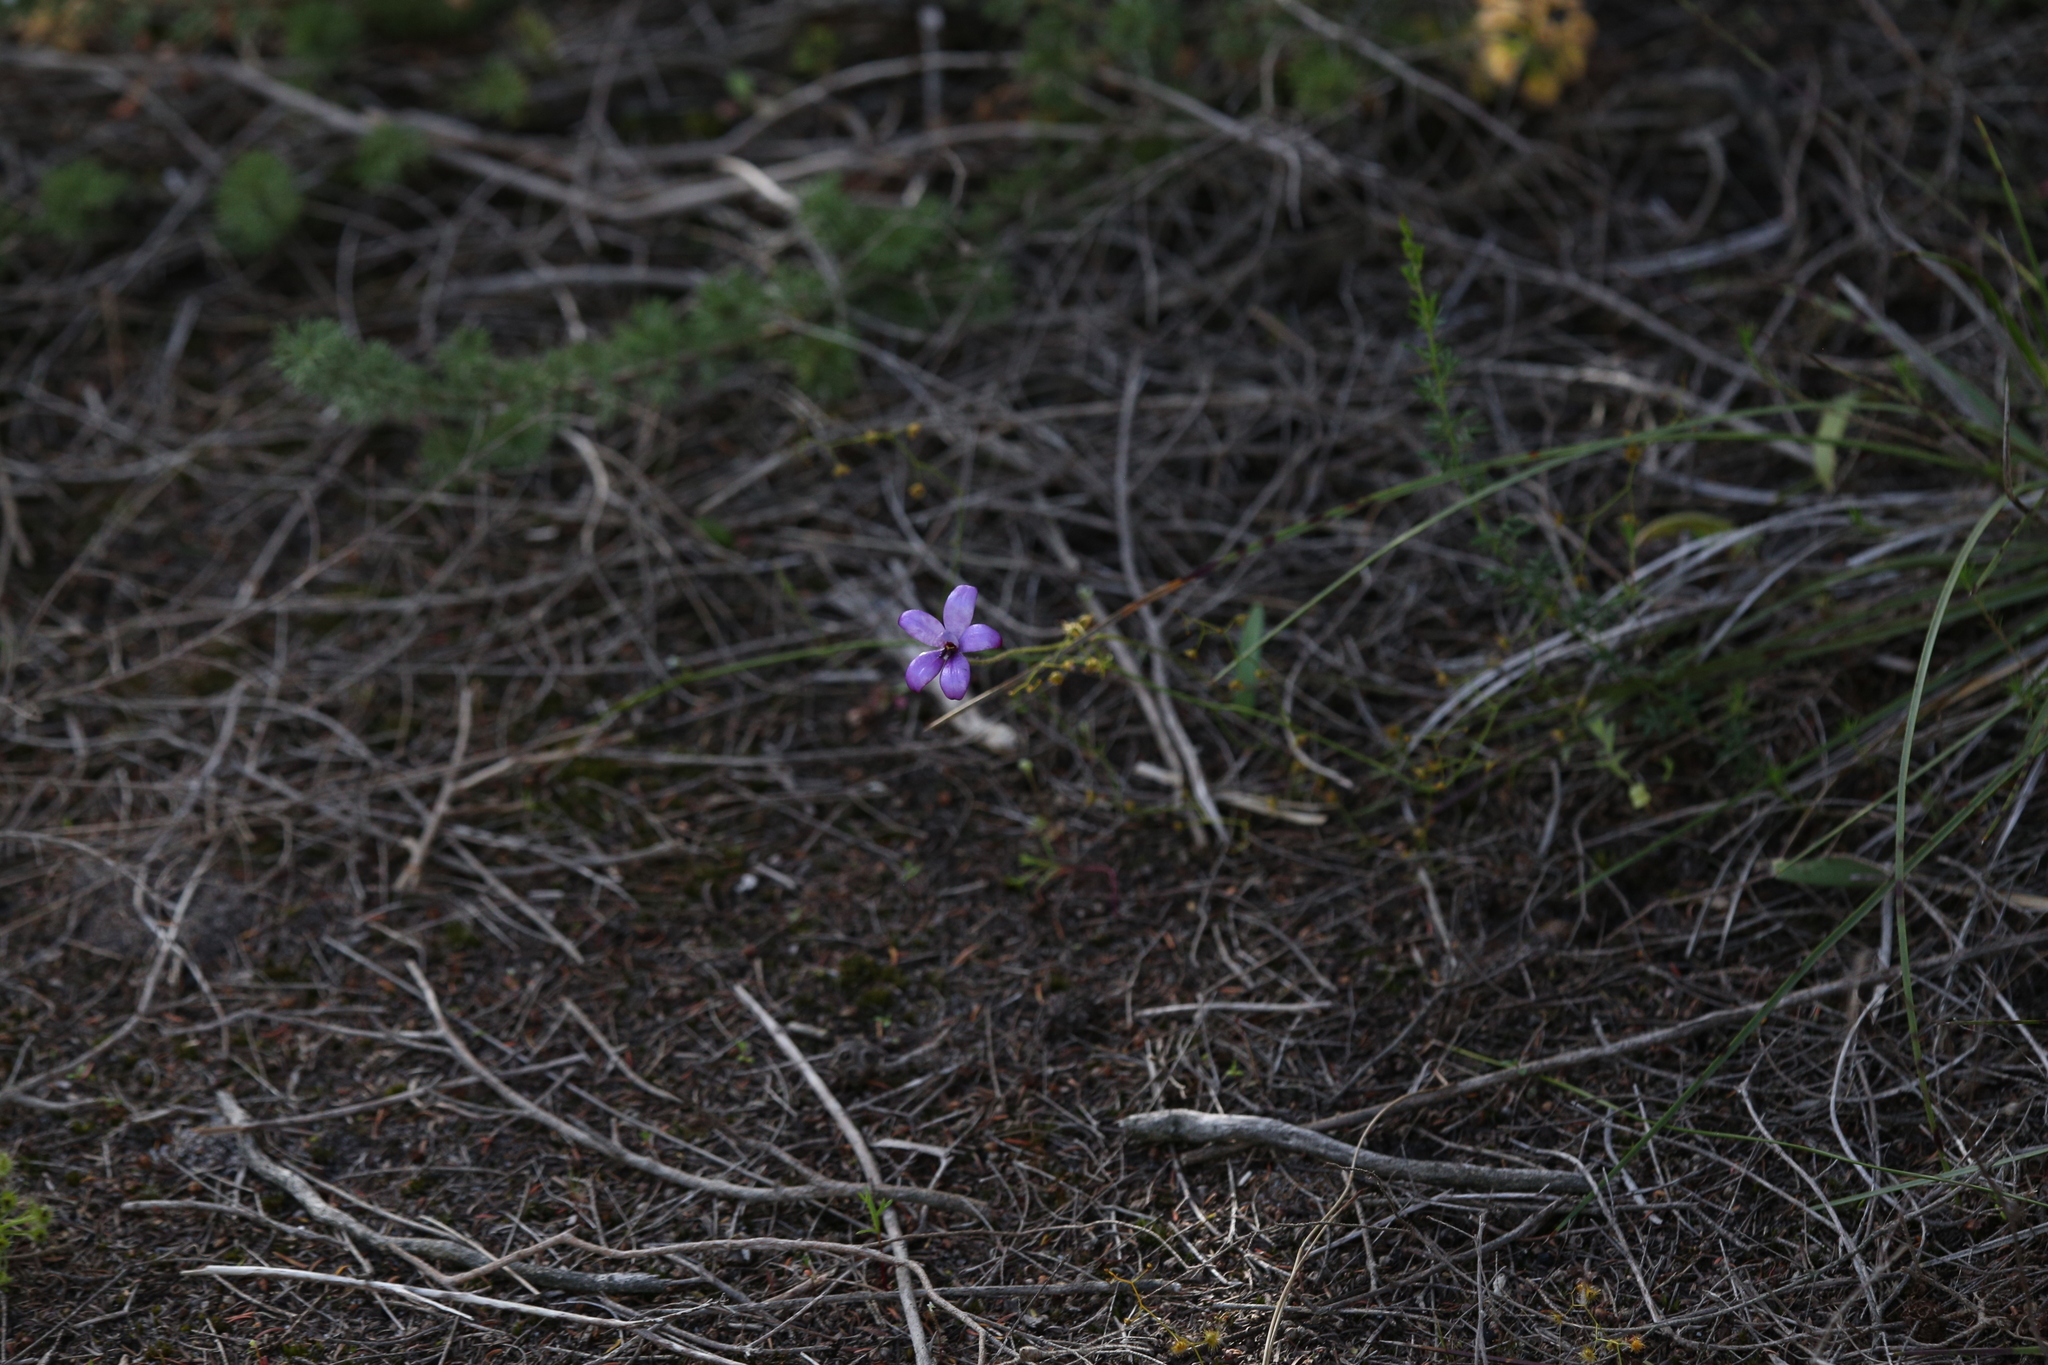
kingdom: Plantae
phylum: Tracheophyta
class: Liliopsida
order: Asparagales
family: Orchidaceae
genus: Caladenia
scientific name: Caladenia brunonis
